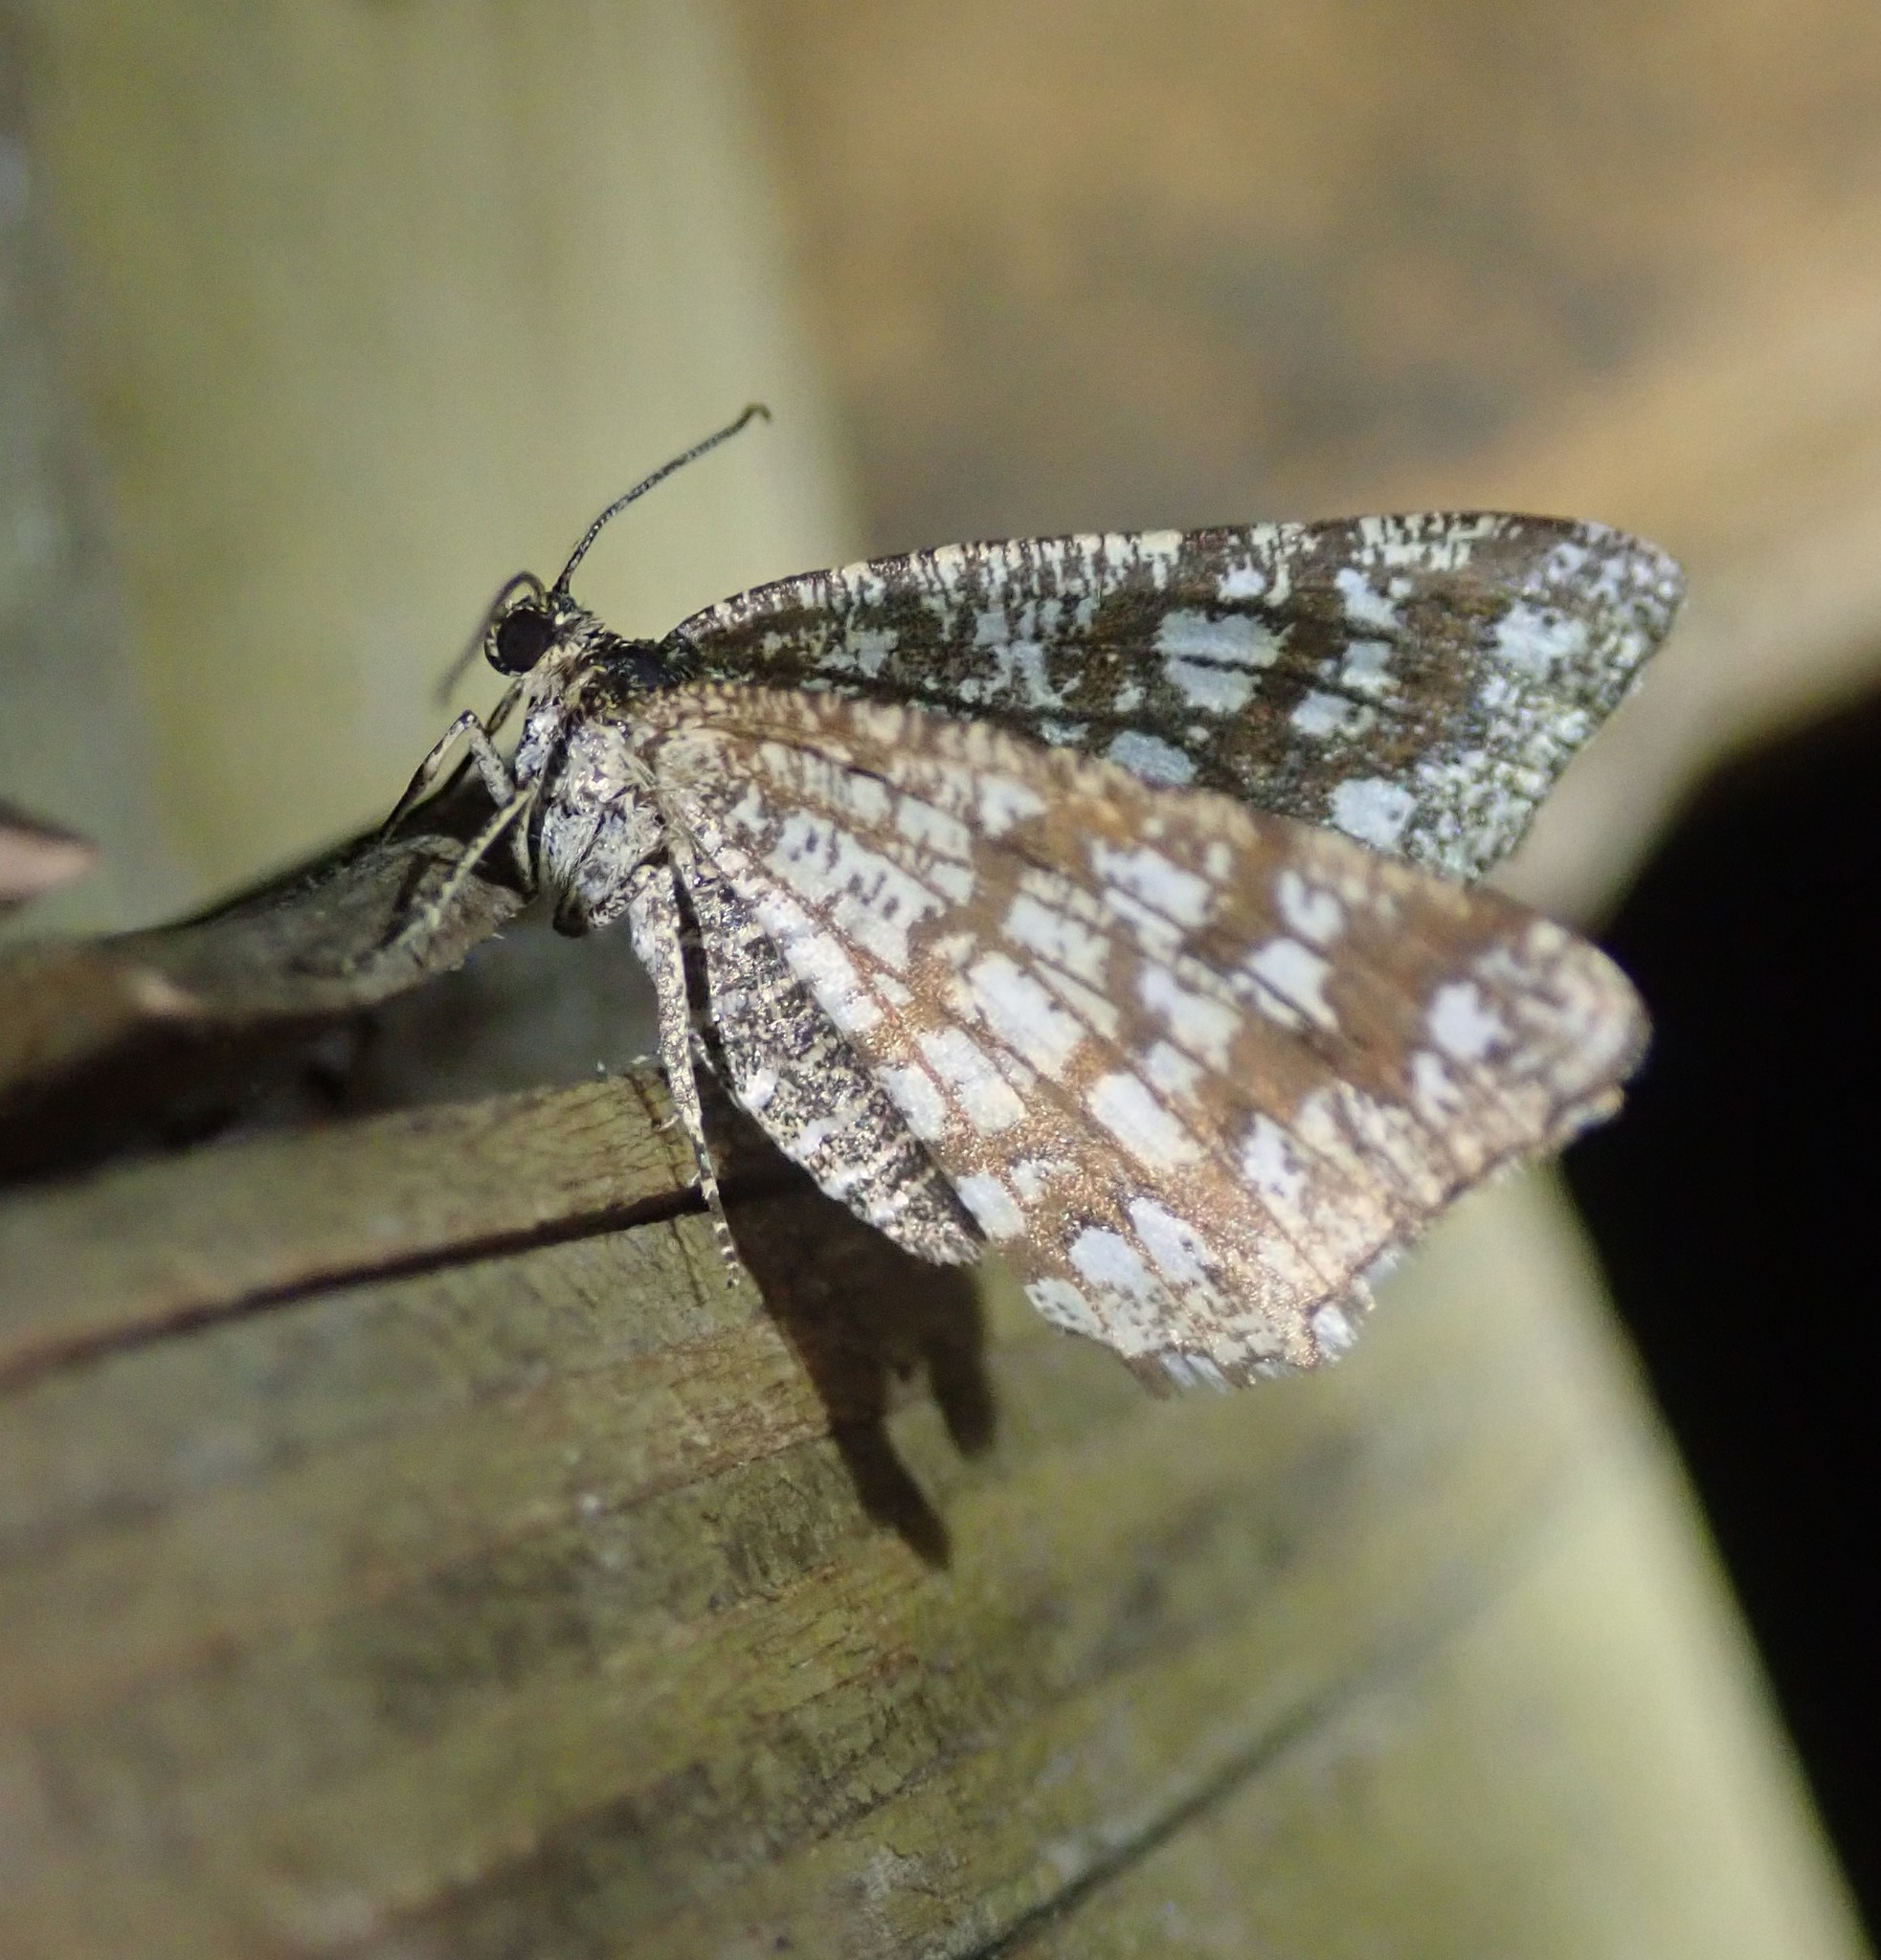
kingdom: Animalia
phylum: Arthropoda
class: Insecta
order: Lepidoptera
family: Geometridae
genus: Chiasmia
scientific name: Chiasmia clathrata
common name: Latticed heath
